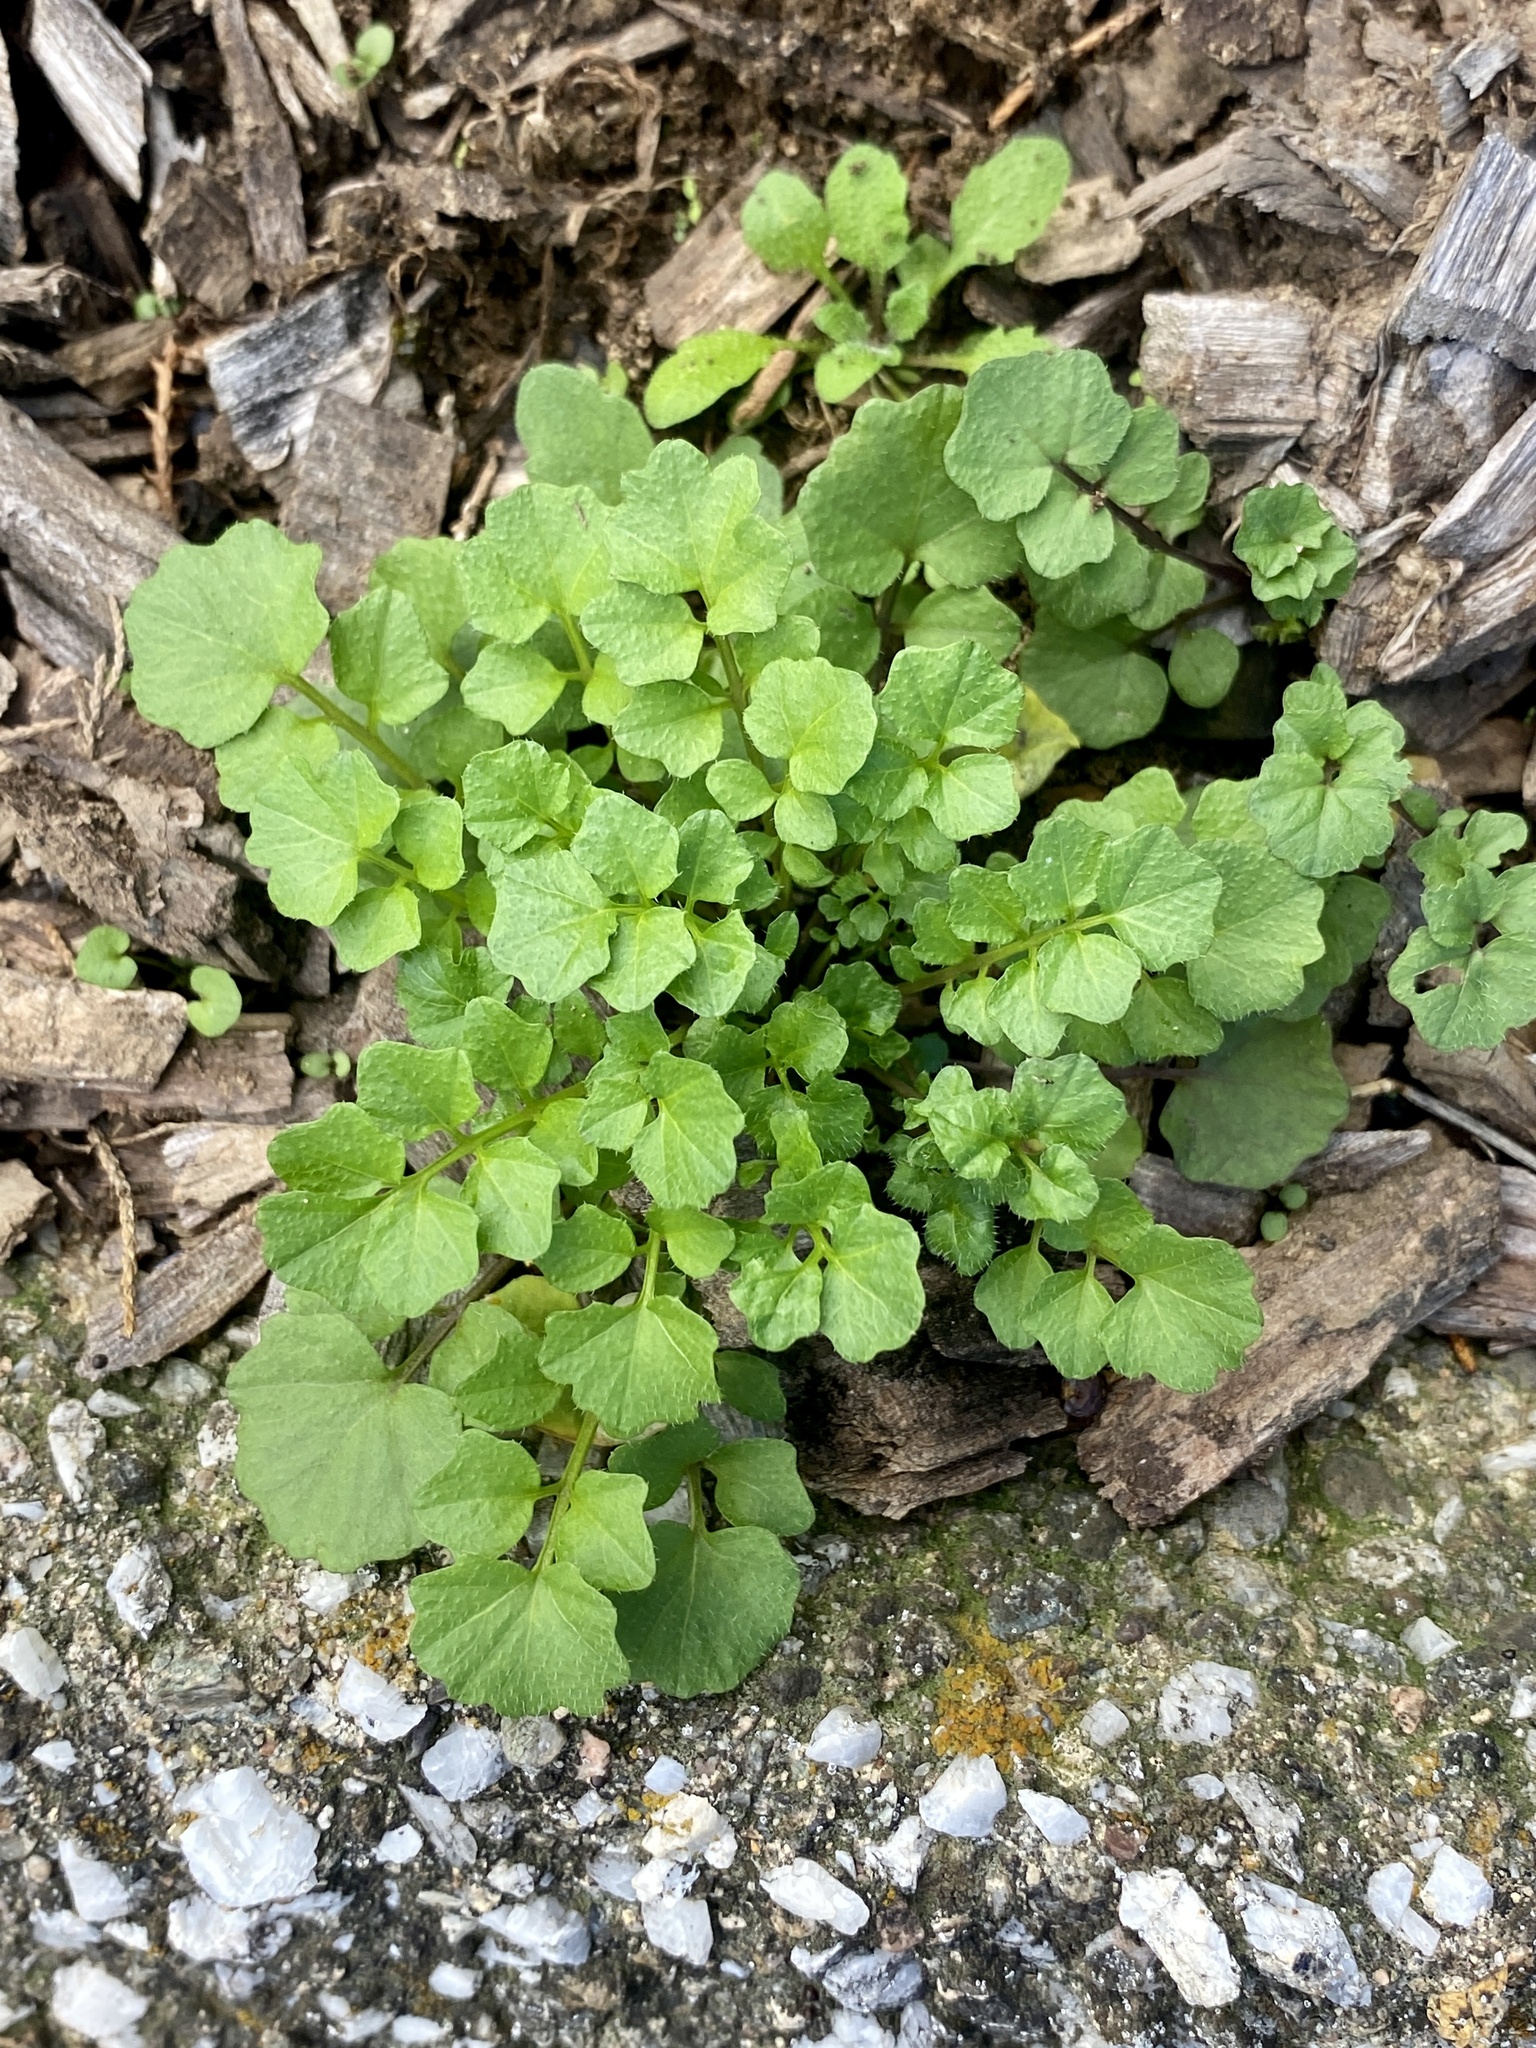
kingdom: Plantae
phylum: Tracheophyta
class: Magnoliopsida
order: Brassicales
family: Brassicaceae
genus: Cardamine
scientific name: Cardamine hirsuta
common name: Hairy bittercress
